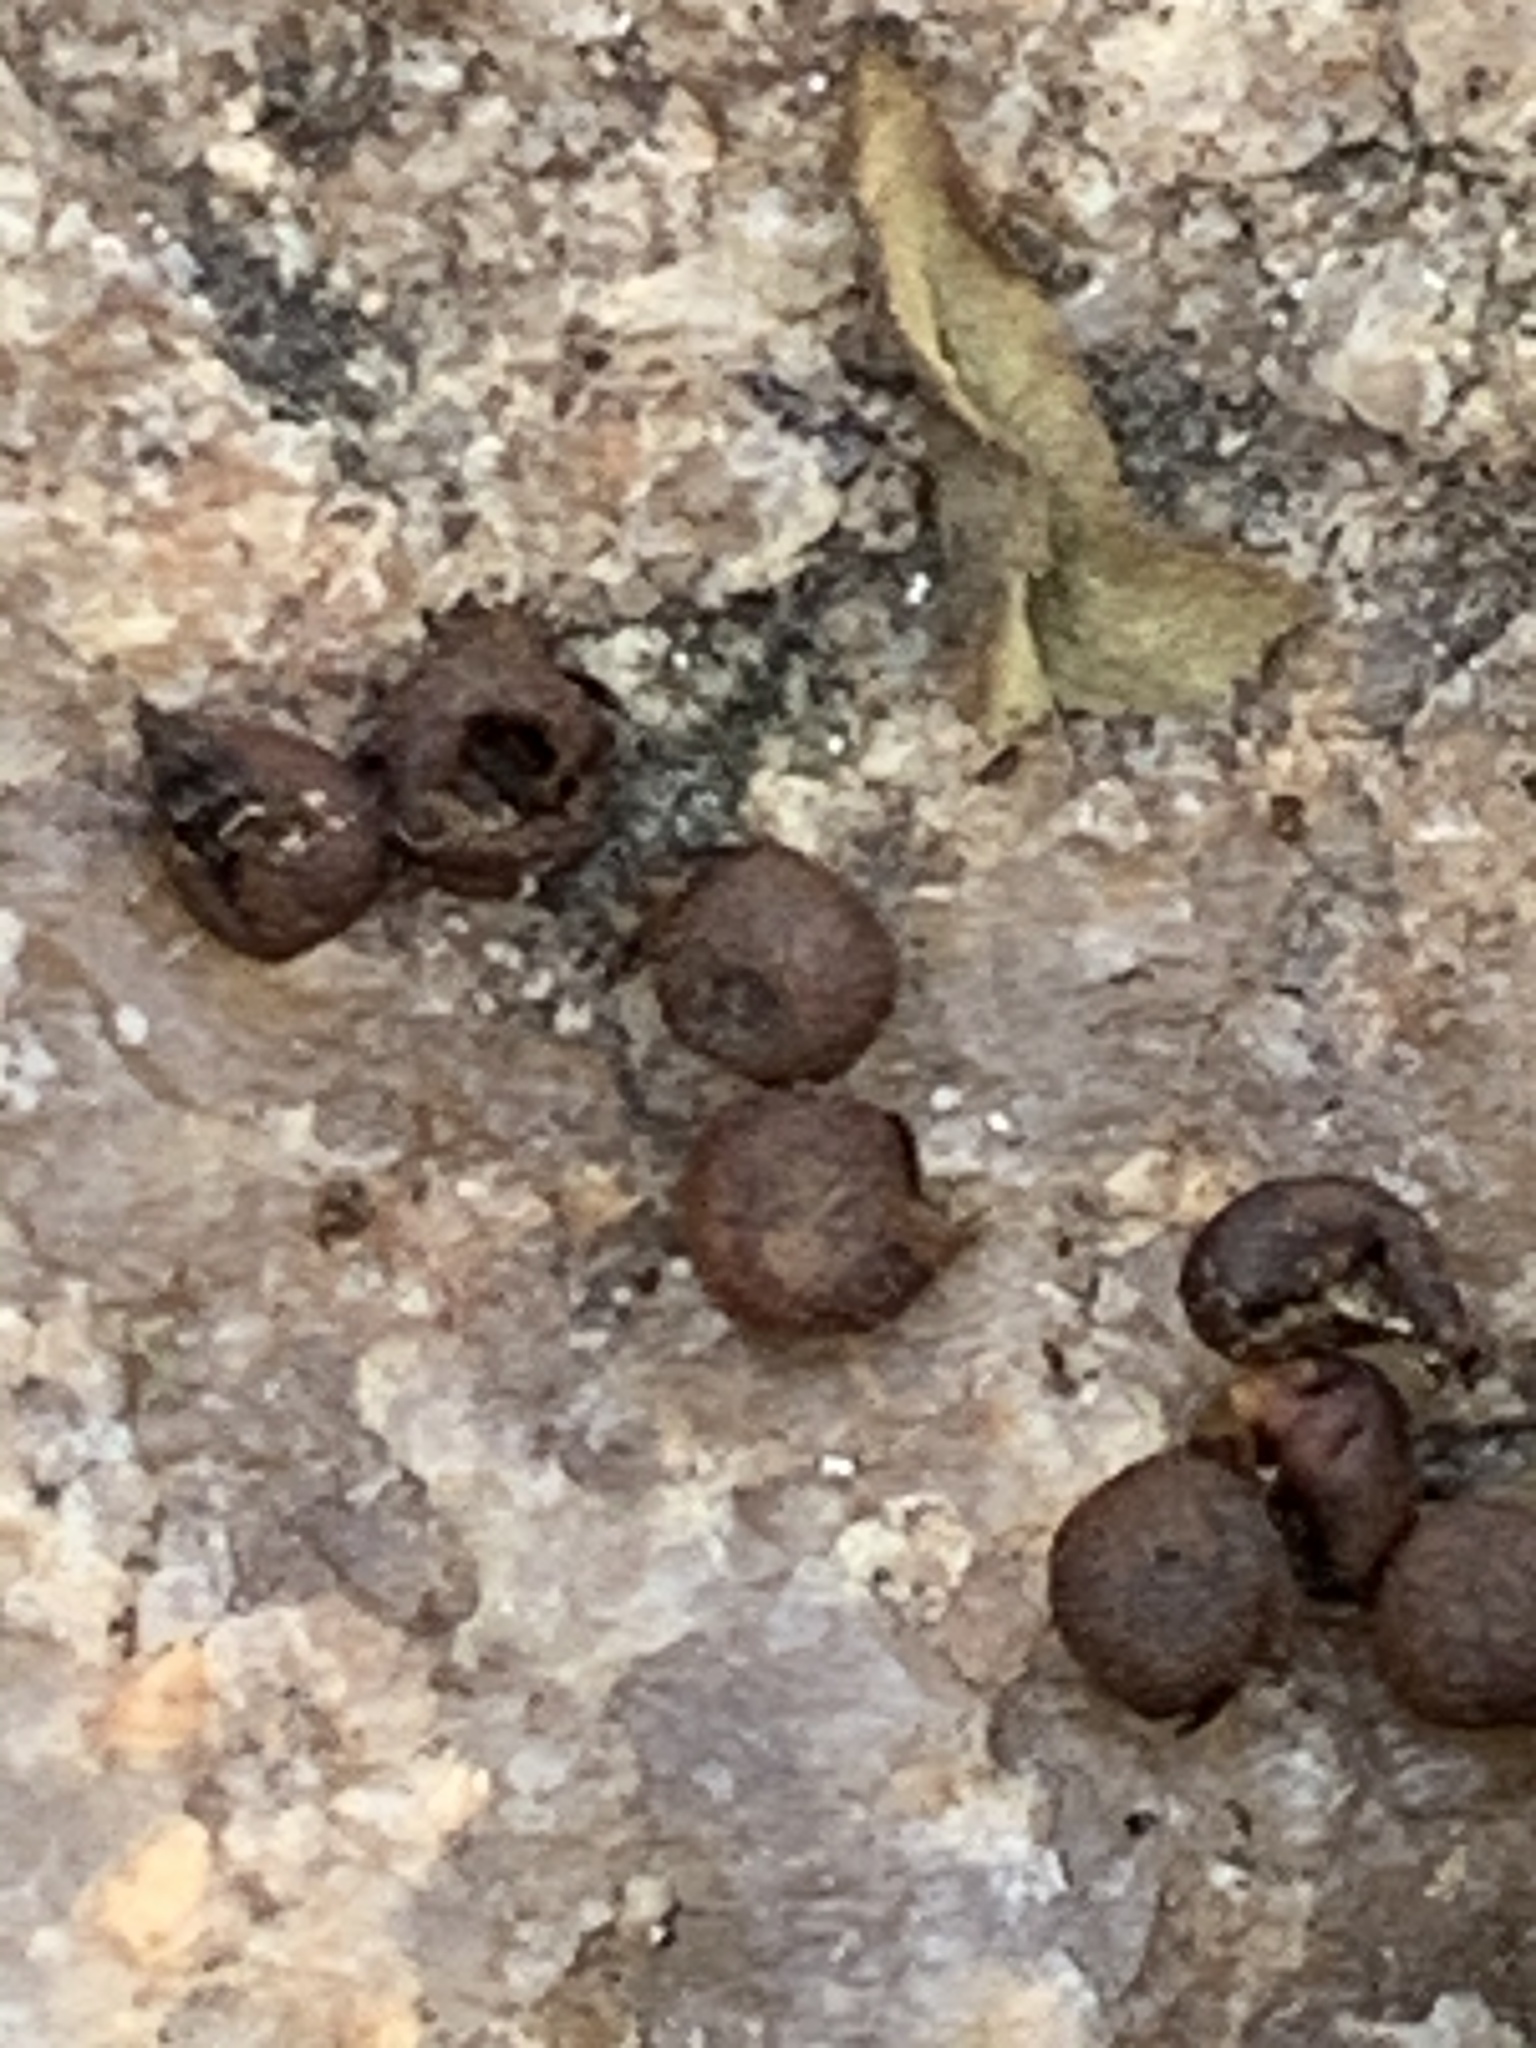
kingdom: Plantae
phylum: Tracheophyta
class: Magnoliopsida
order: Malvales
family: Malvaceae
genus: Hibiscus
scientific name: Hibiscus moscheutos
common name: Common rose-mallow
